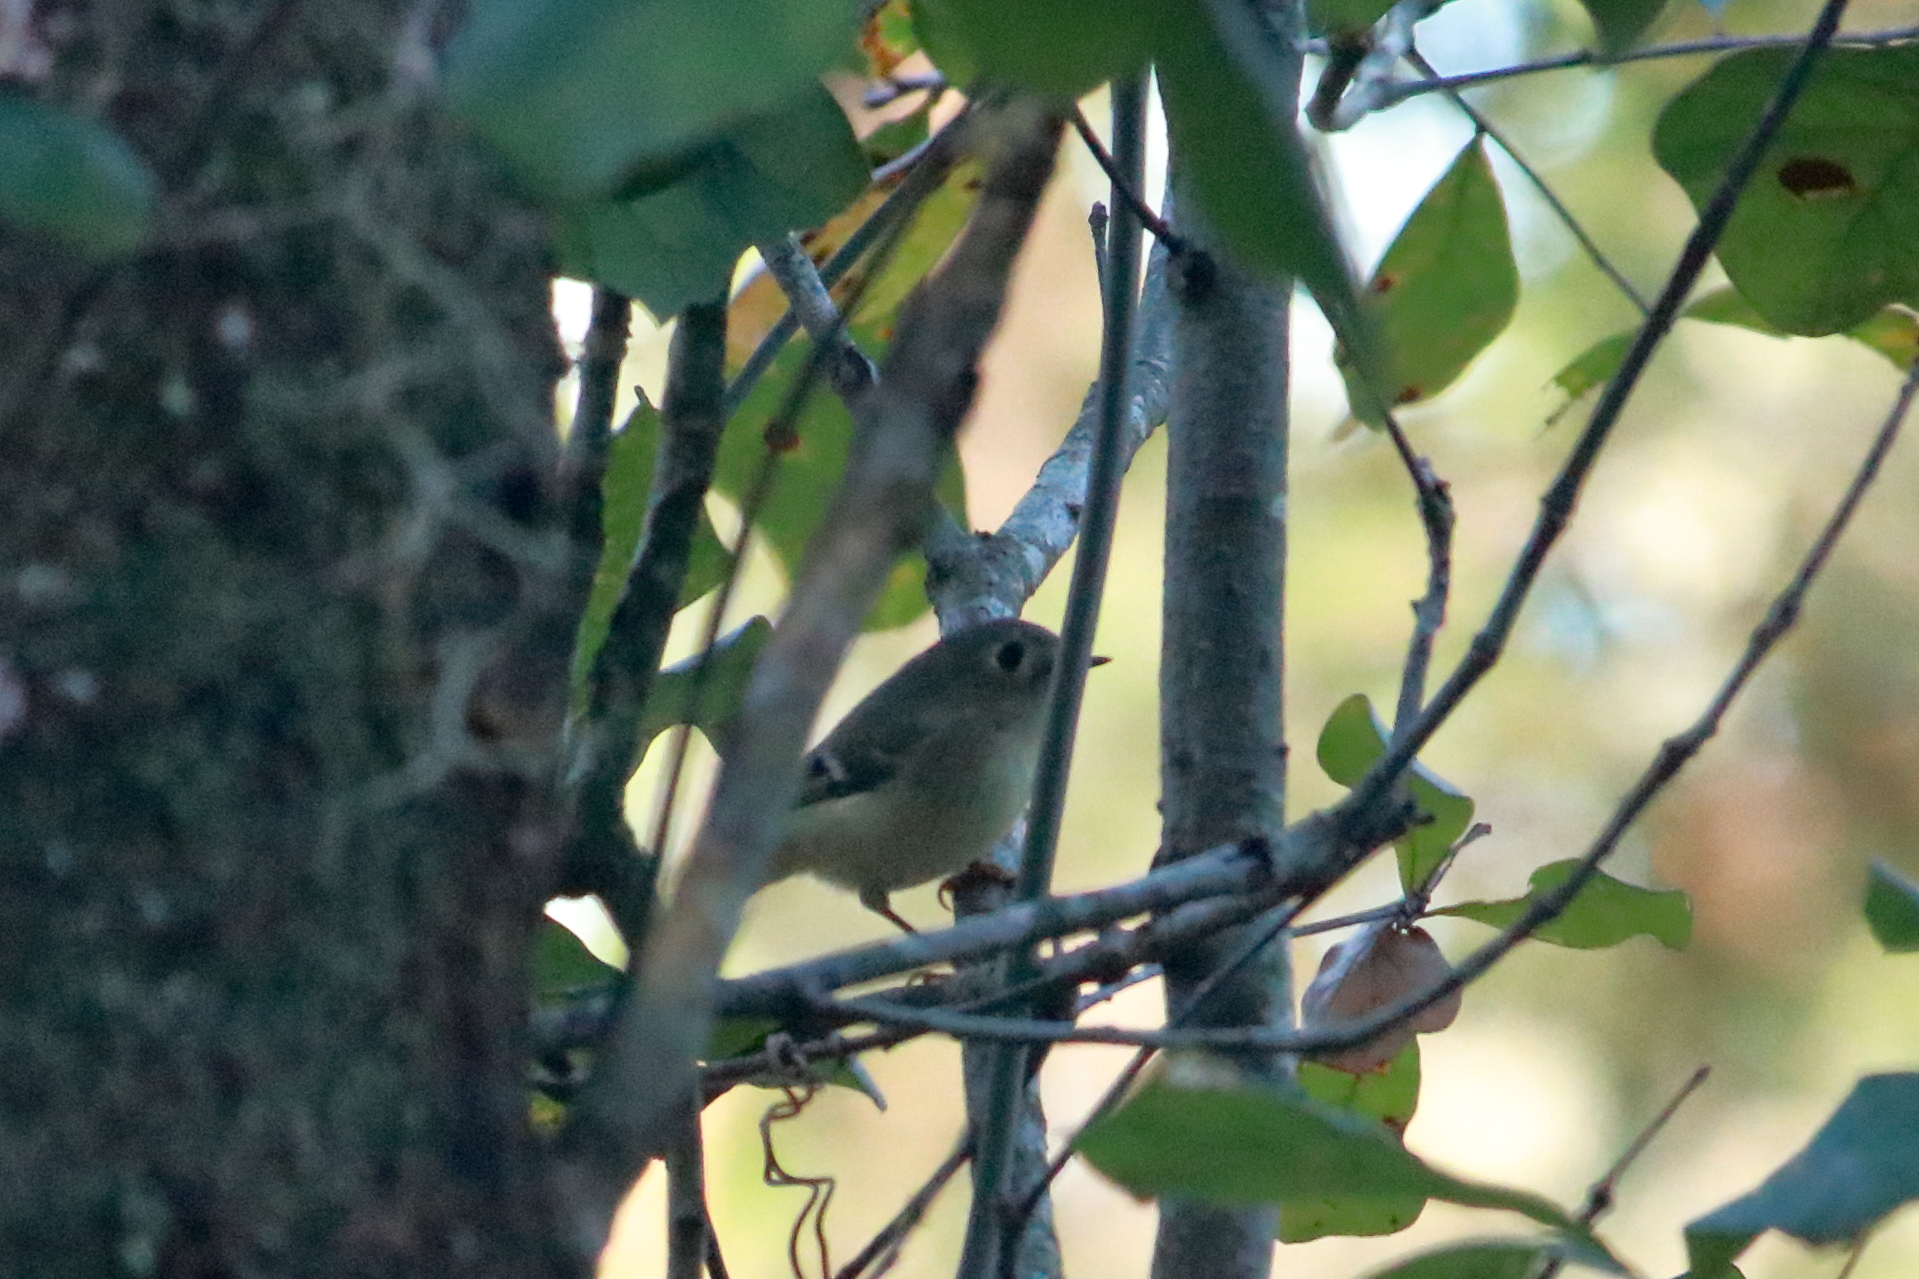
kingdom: Animalia
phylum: Chordata
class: Aves
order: Passeriformes
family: Regulidae
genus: Regulus
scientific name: Regulus calendula
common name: Ruby-crowned kinglet
